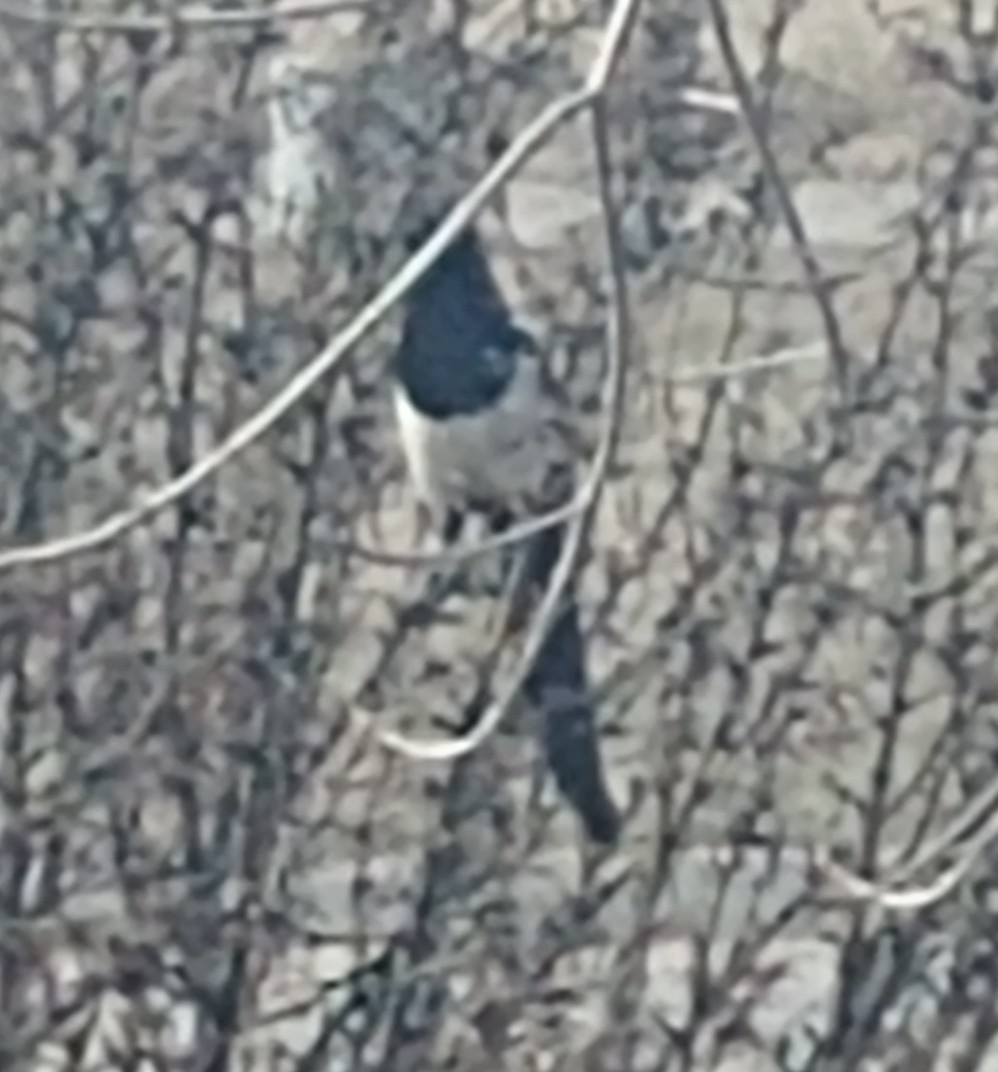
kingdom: Animalia
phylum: Chordata
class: Aves
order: Passeriformes
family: Corvidae
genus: Pica
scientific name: Pica hudsonia
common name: Black-billed magpie
